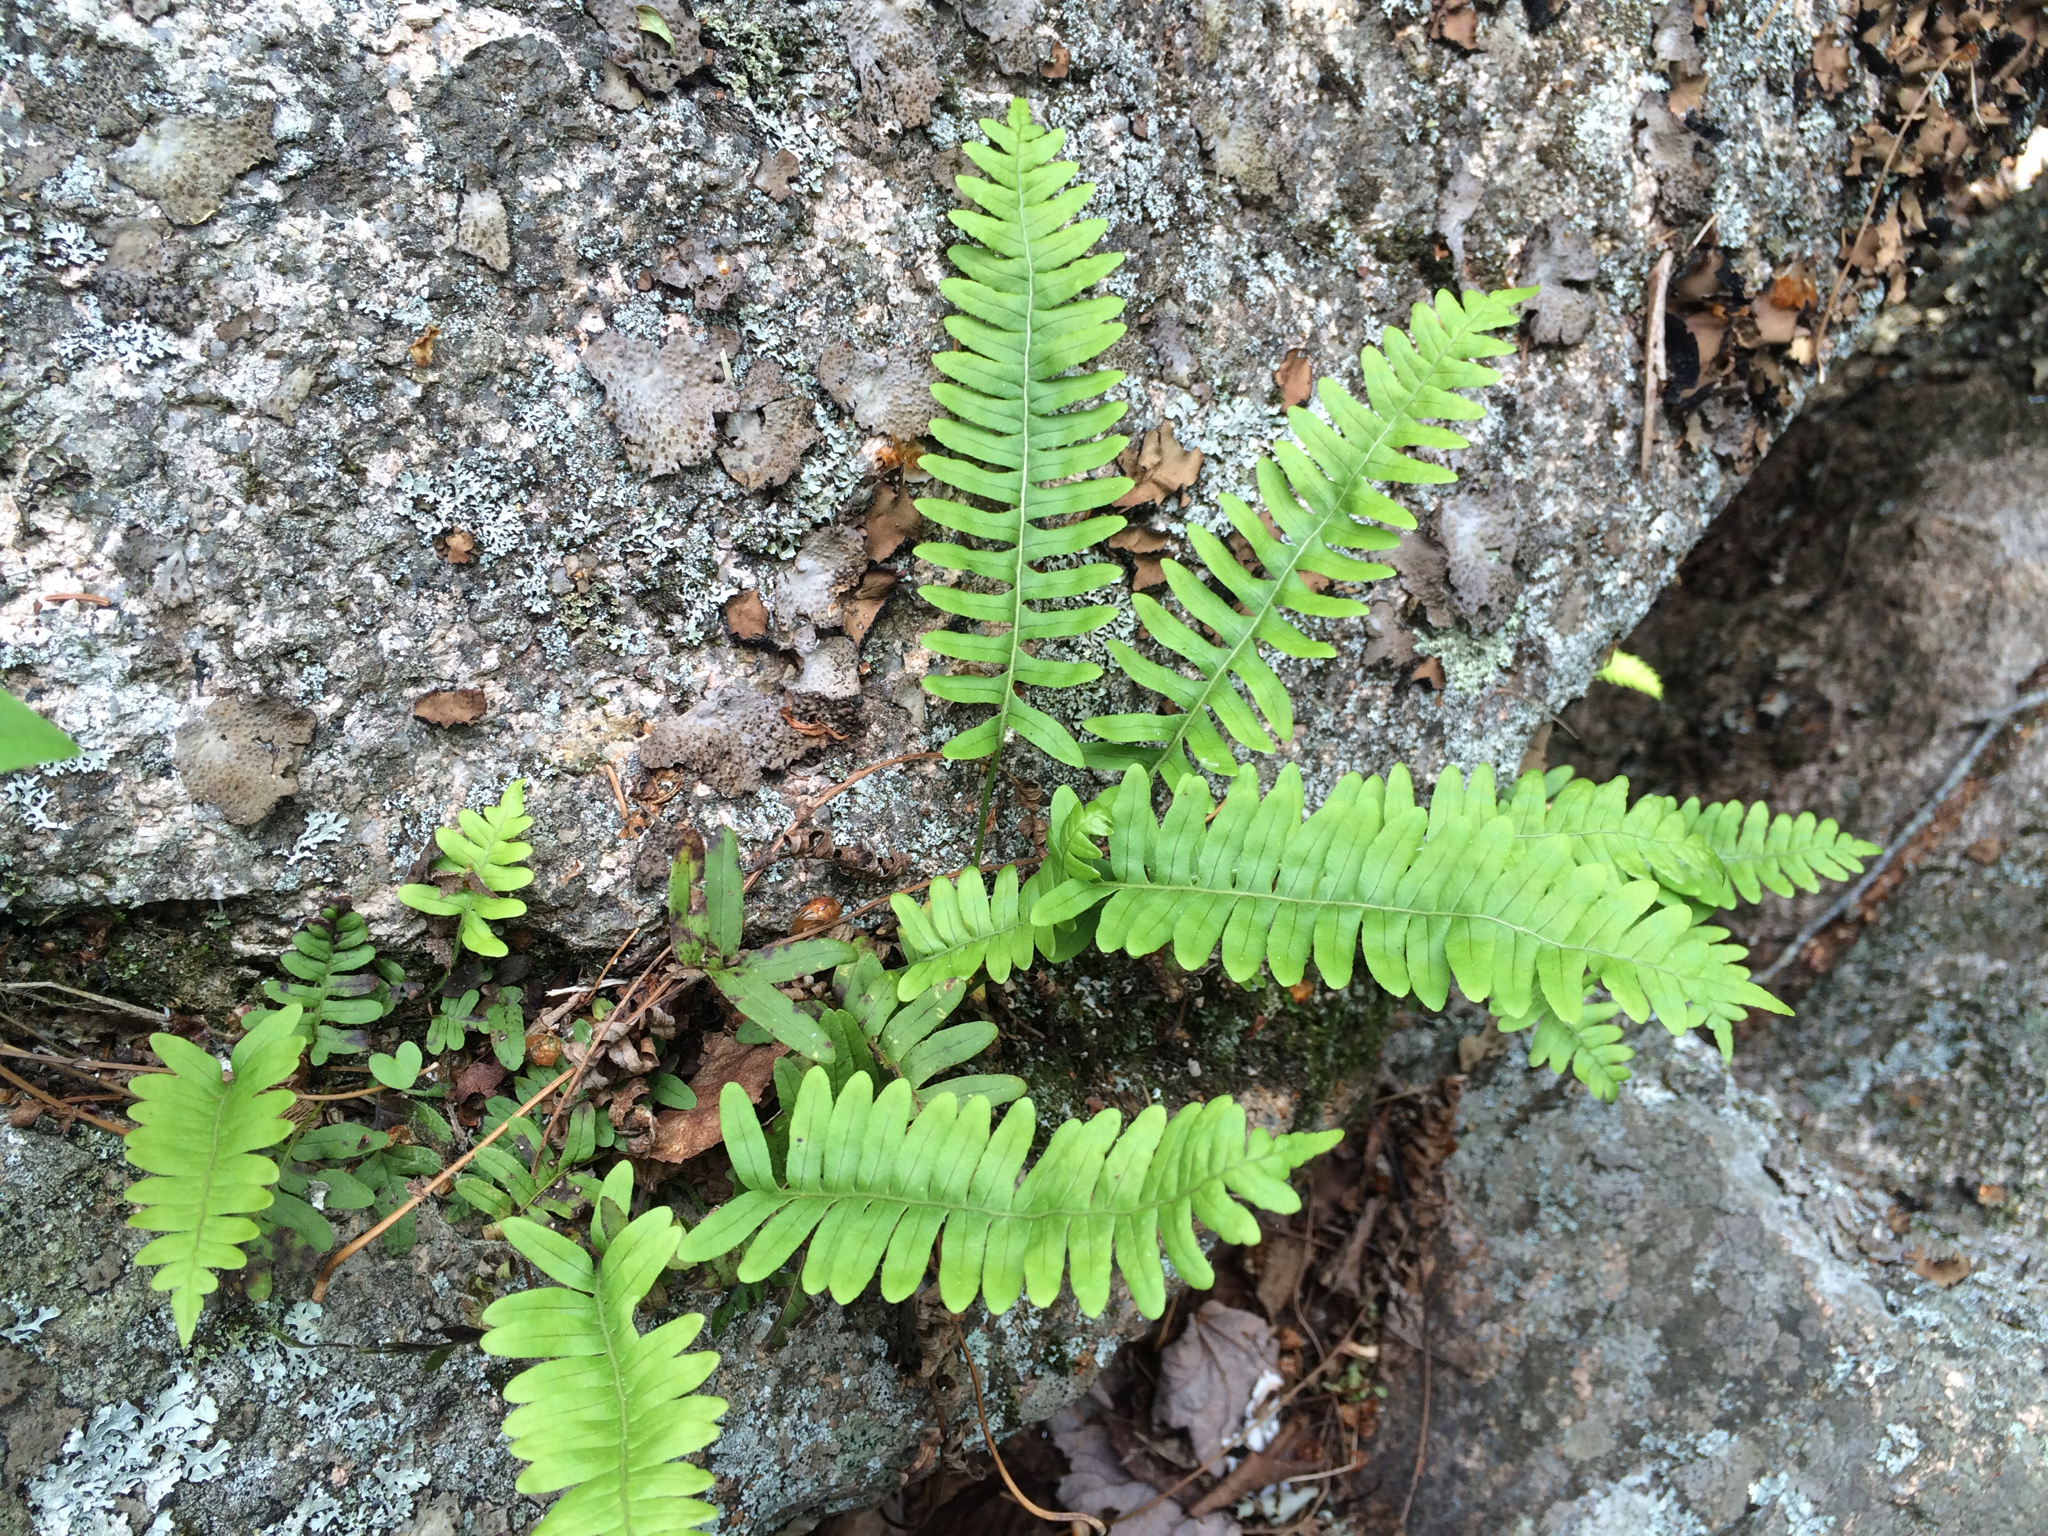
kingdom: Plantae
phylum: Tracheophyta
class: Polypodiopsida
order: Polypodiales
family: Polypodiaceae
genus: Polypodium
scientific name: Polypodium virginianum
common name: American wall fern
